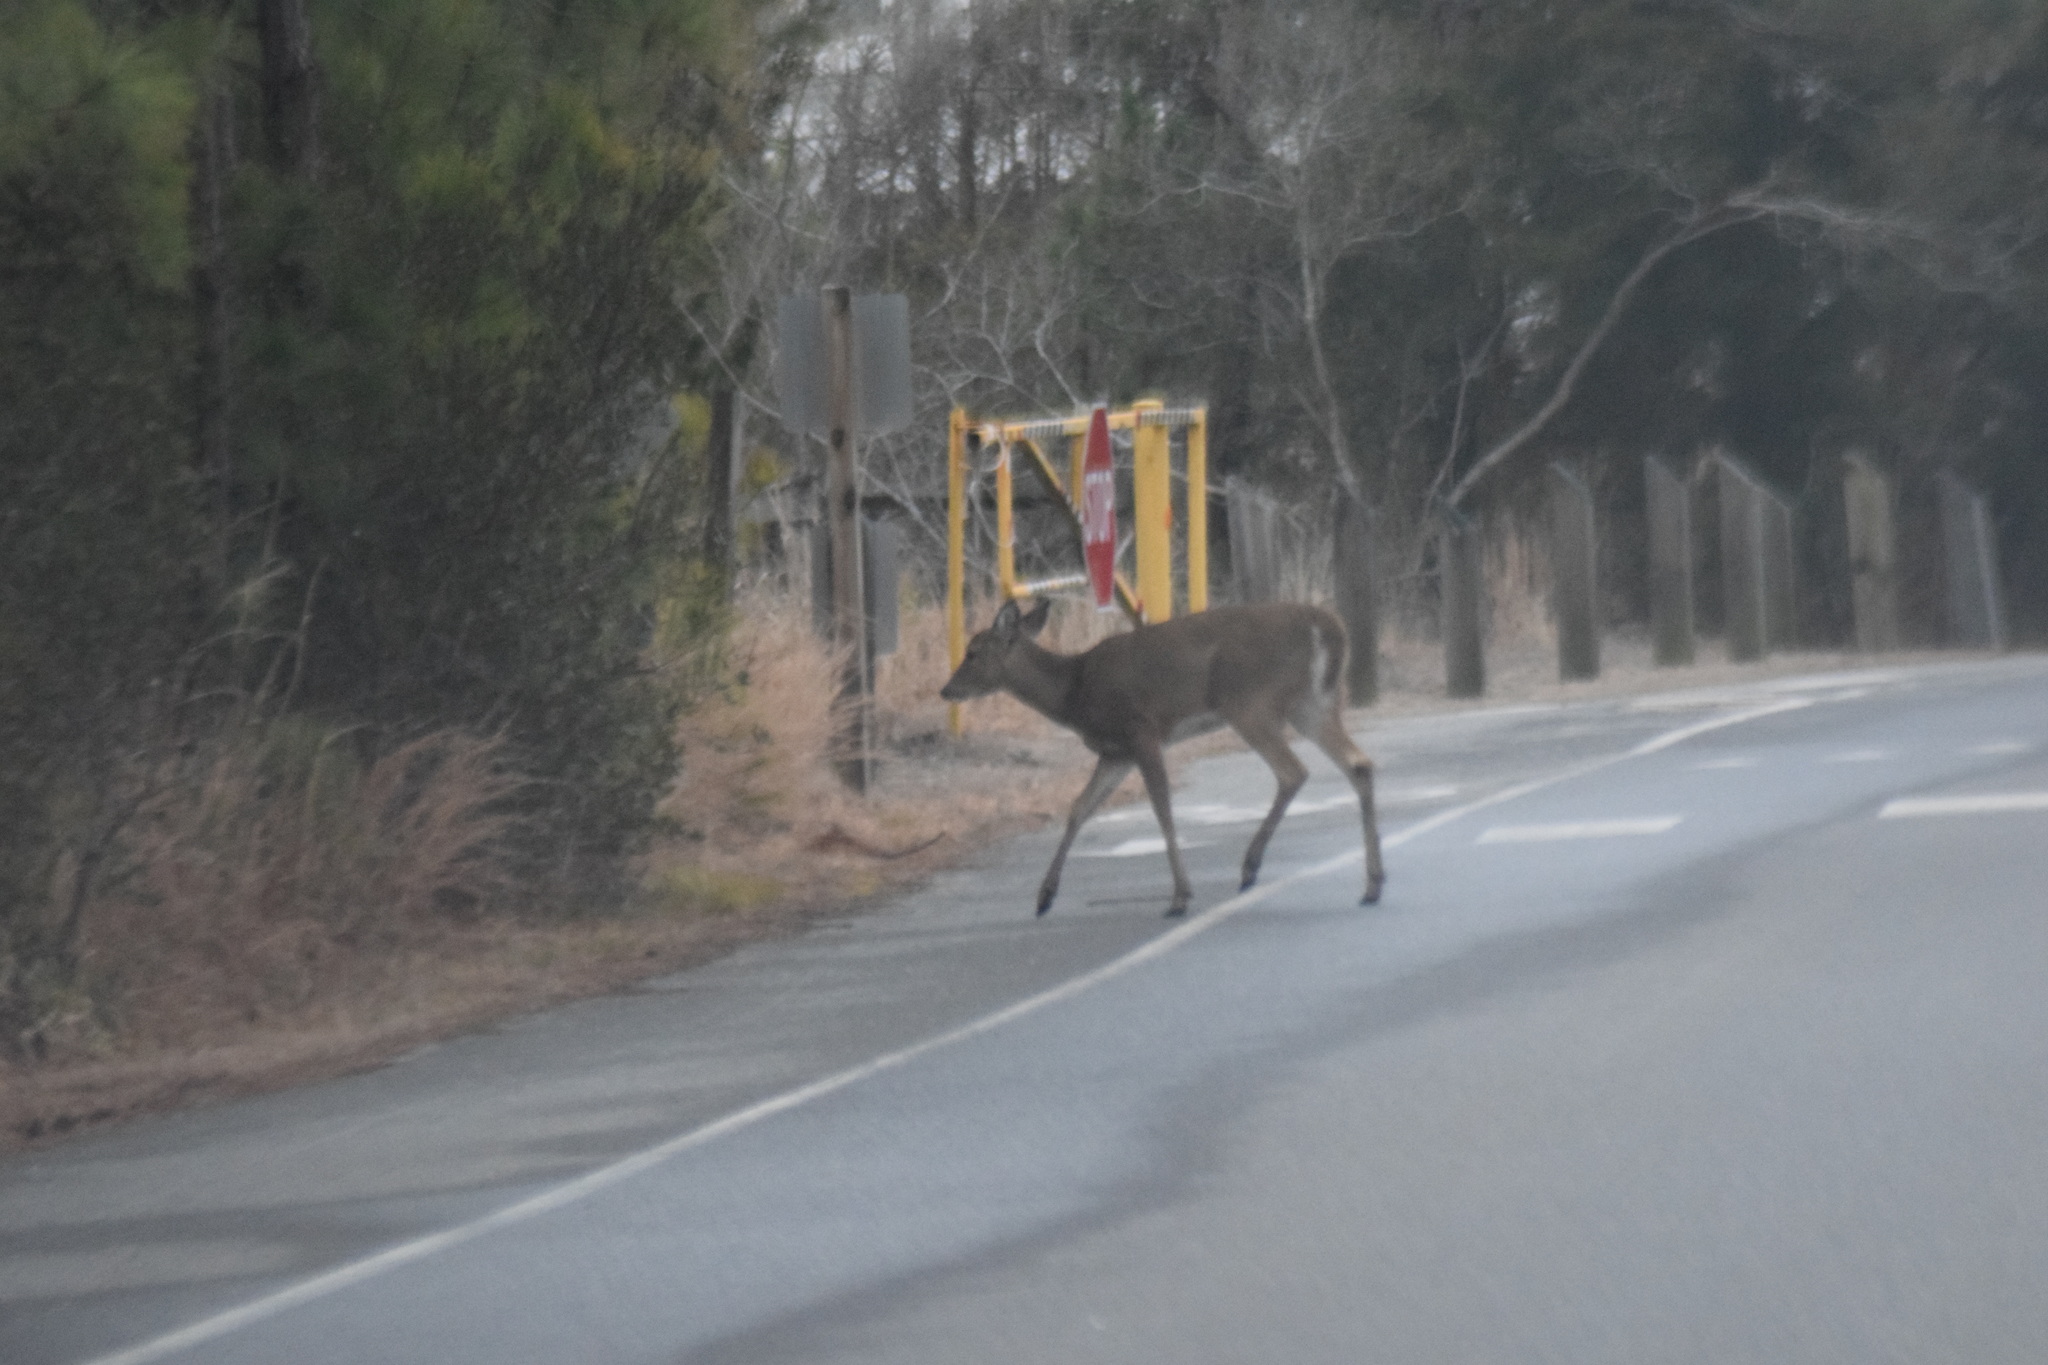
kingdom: Animalia
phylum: Chordata
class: Mammalia
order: Artiodactyla
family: Cervidae
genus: Odocoileus
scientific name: Odocoileus virginianus
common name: White-tailed deer
